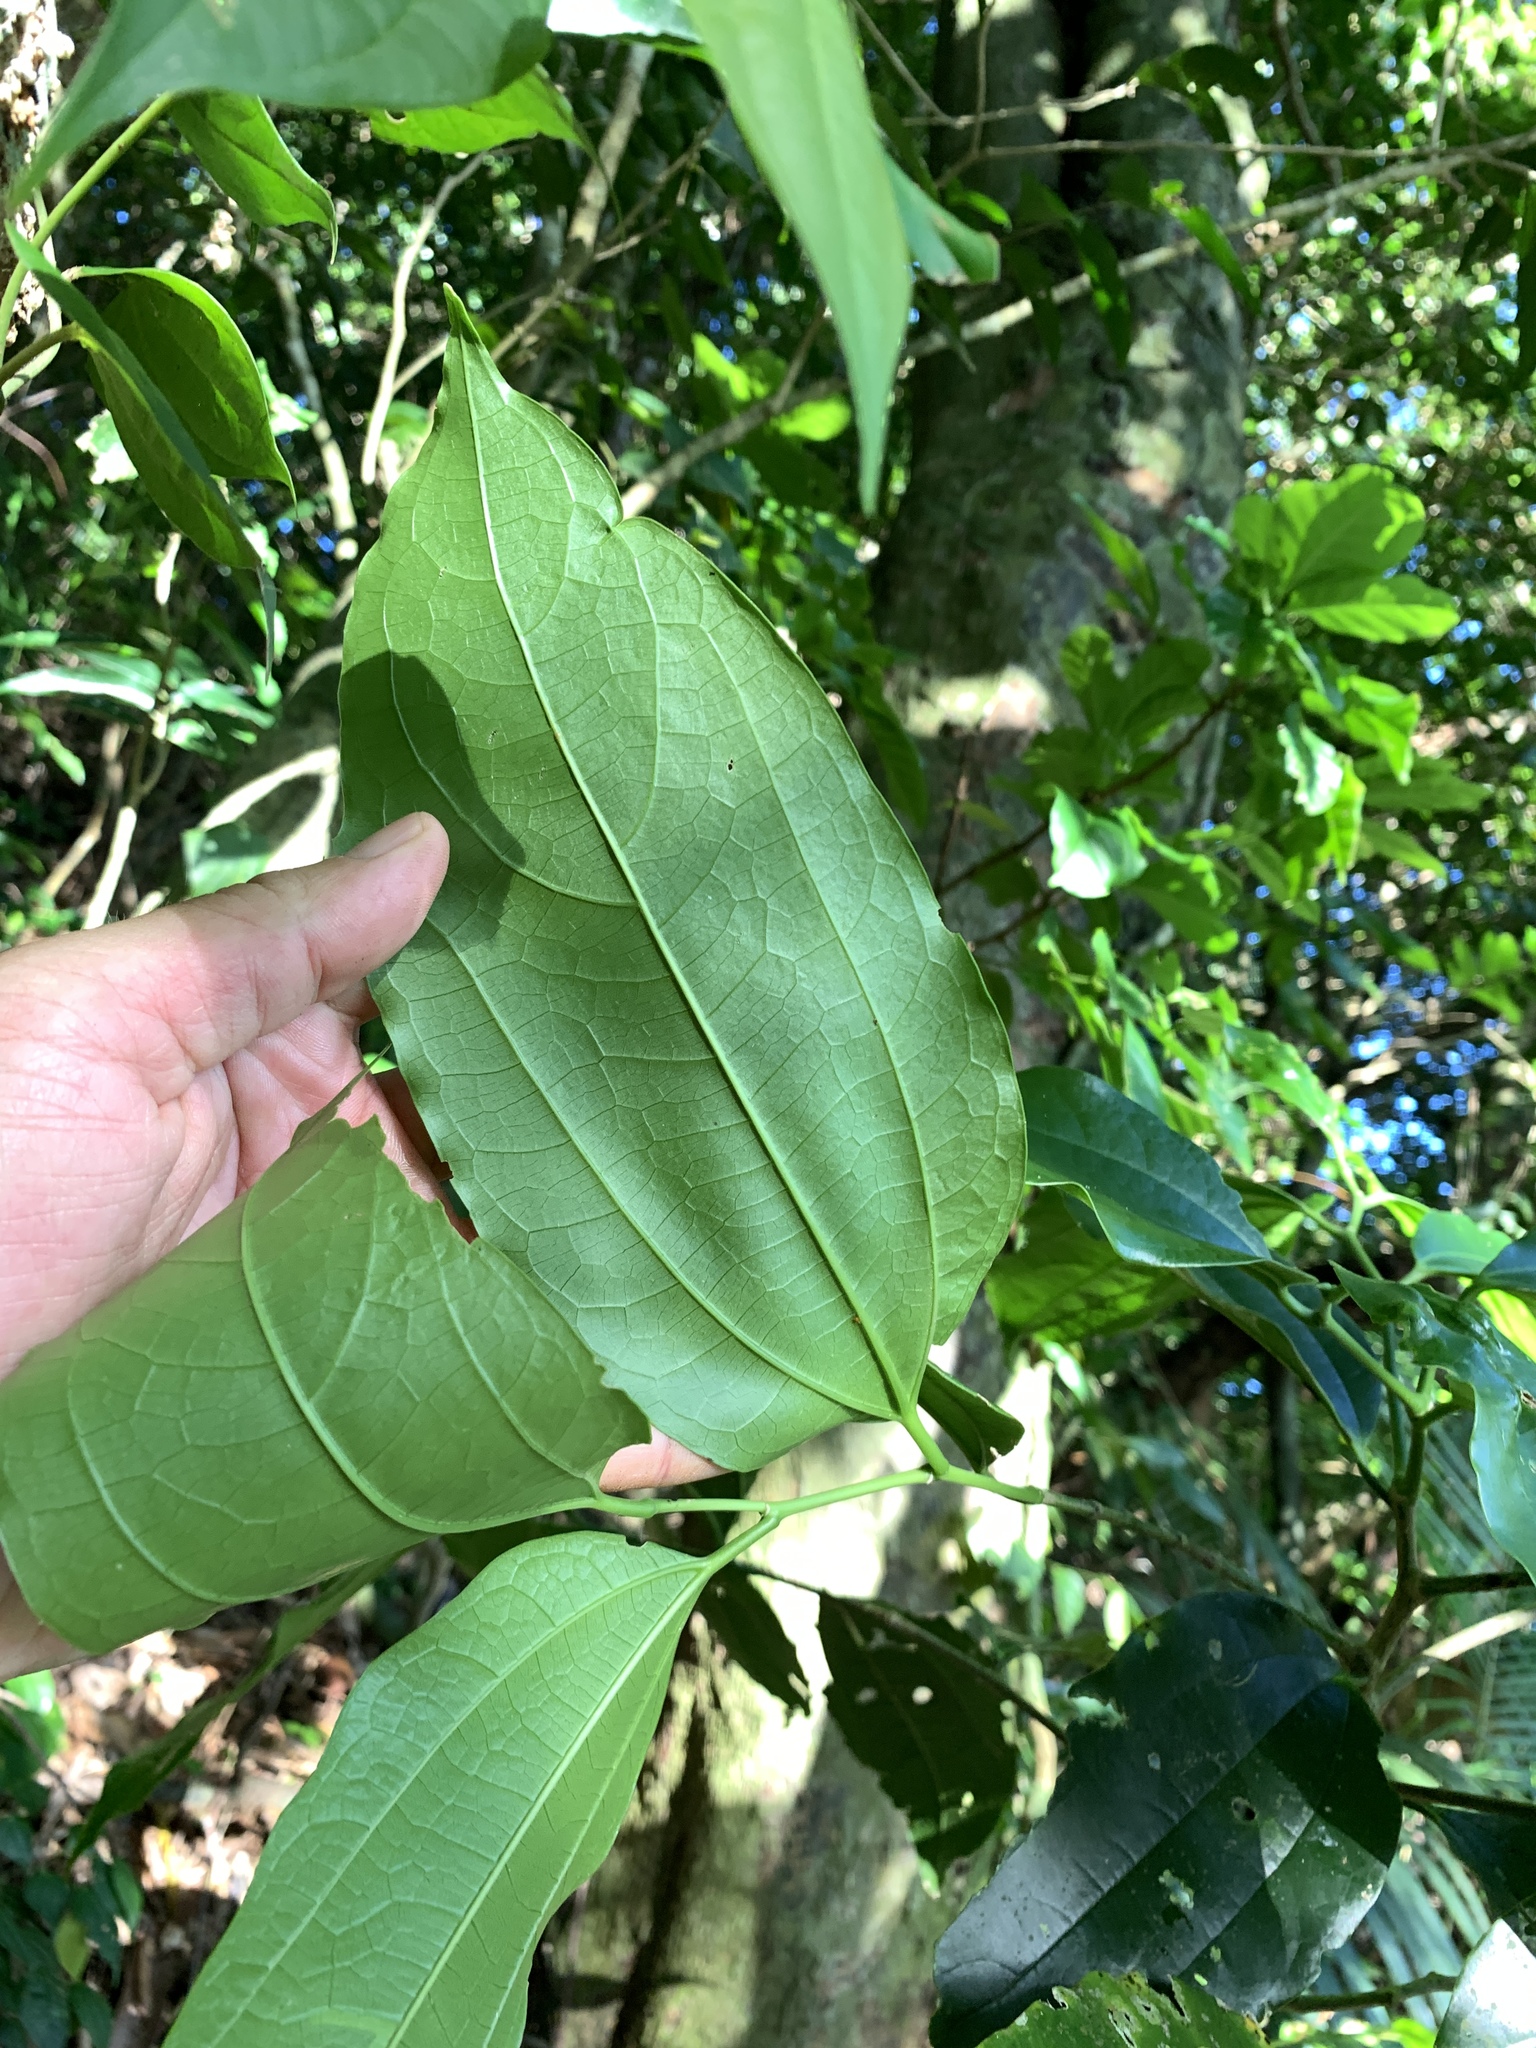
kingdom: Plantae
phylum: Tracheophyta
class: Magnoliopsida
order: Rosales
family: Cannabaceae
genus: Celtis
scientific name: Celtis philippensis
